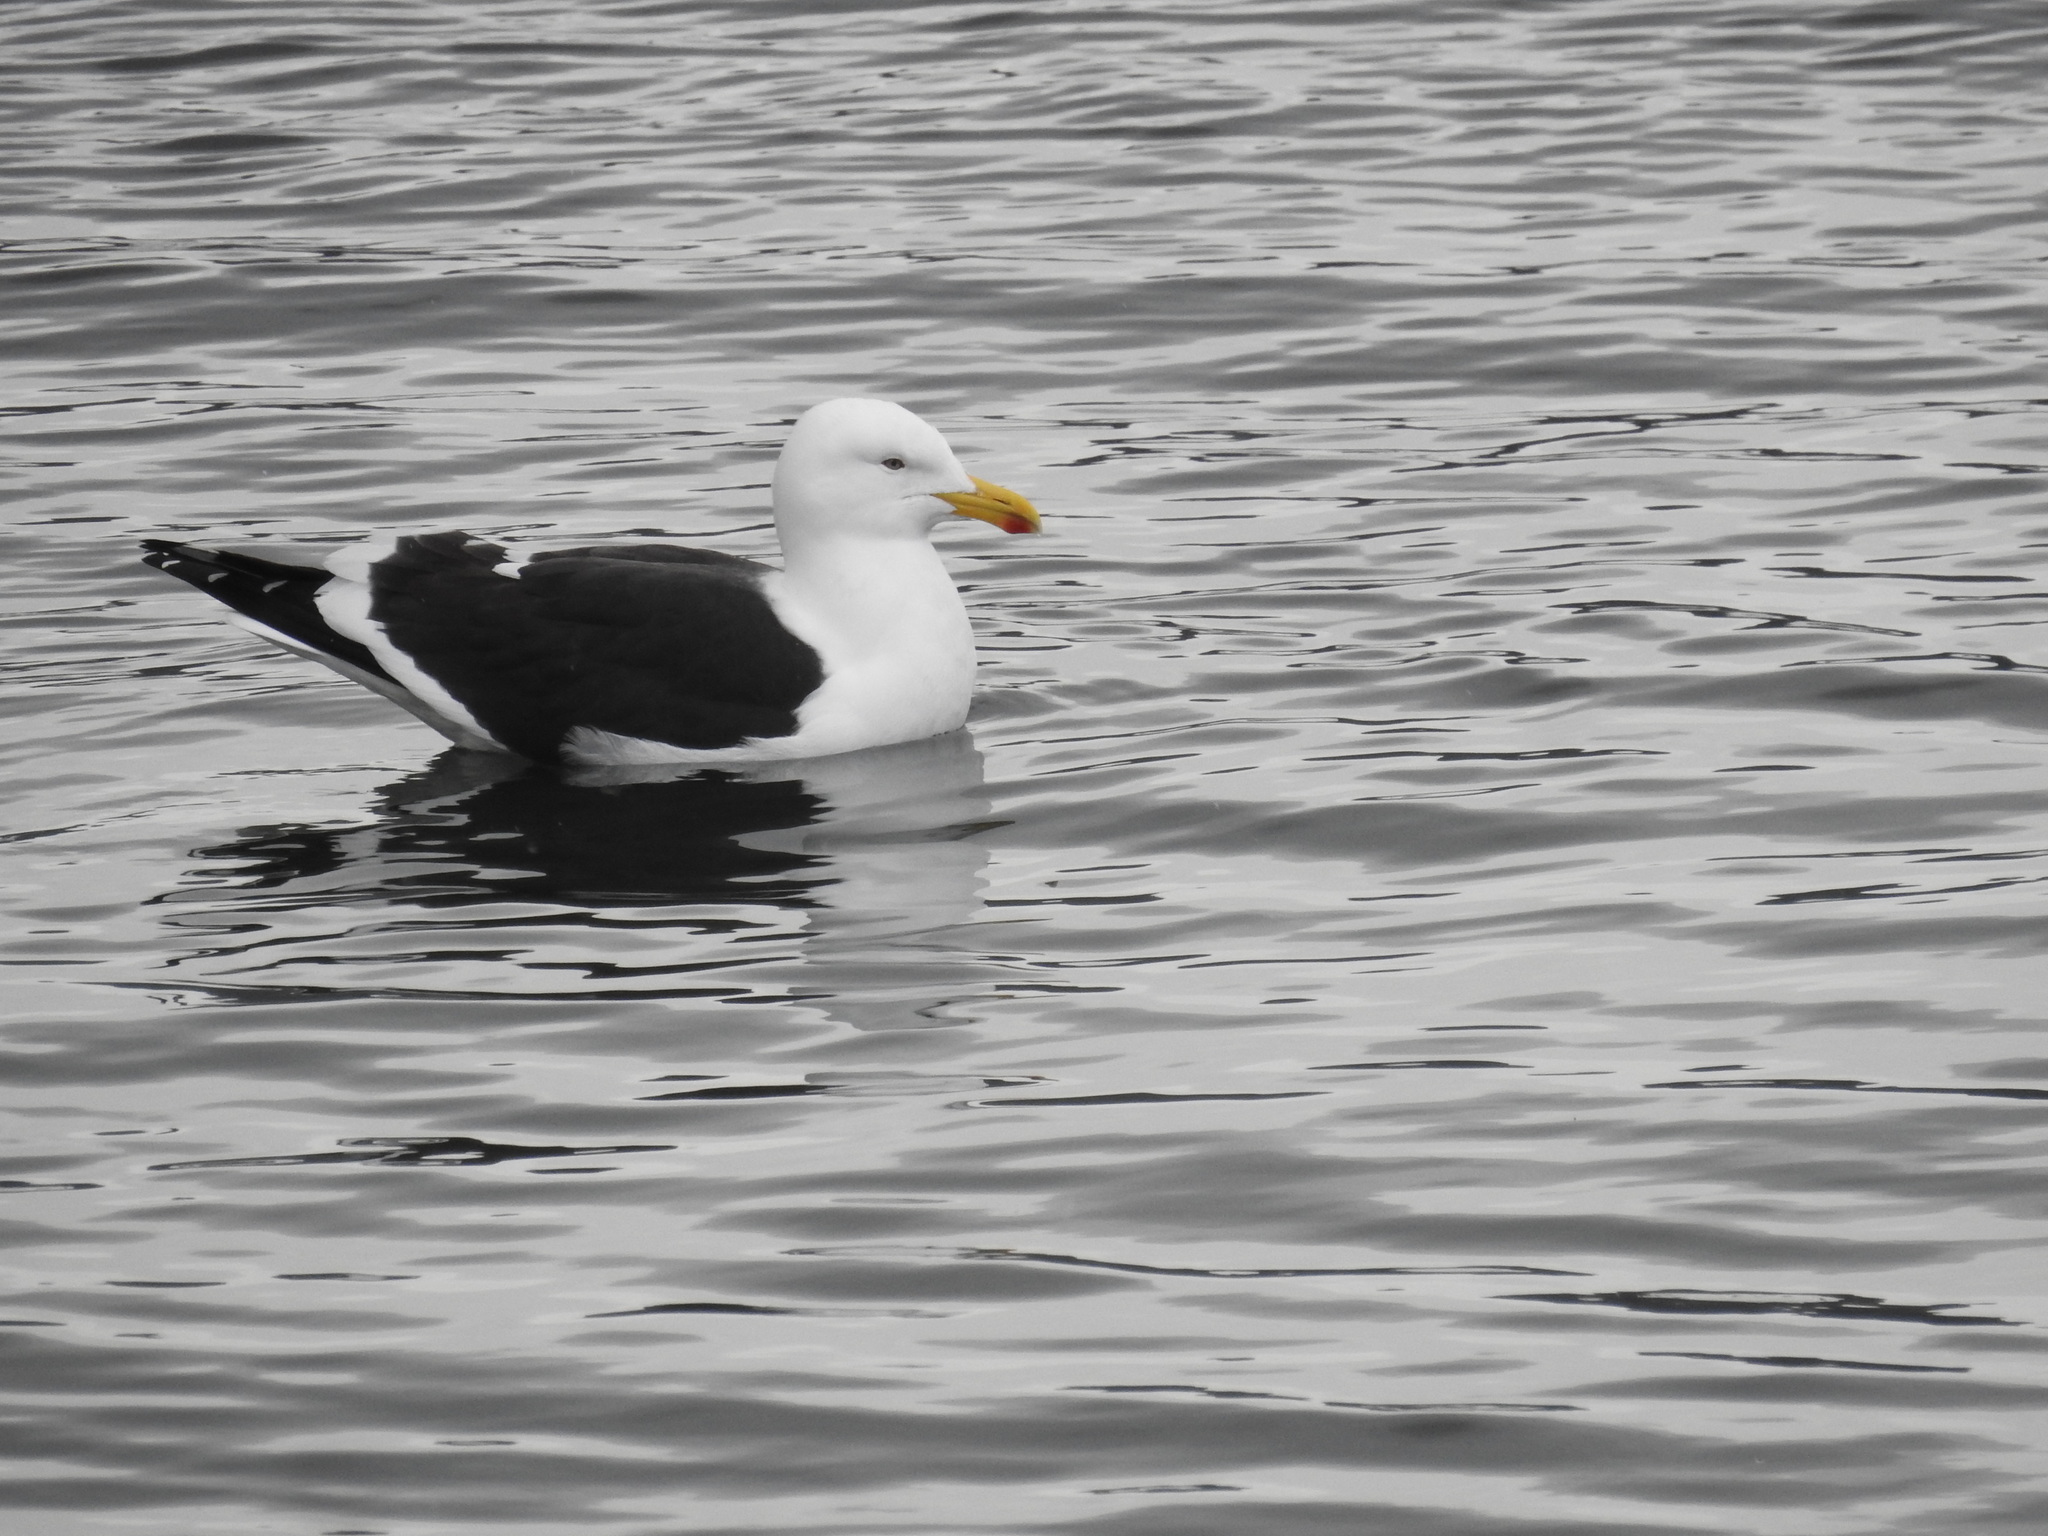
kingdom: Animalia
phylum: Chordata
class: Aves
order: Charadriiformes
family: Laridae
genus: Larus
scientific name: Larus dominicanus
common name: Kelp gull
